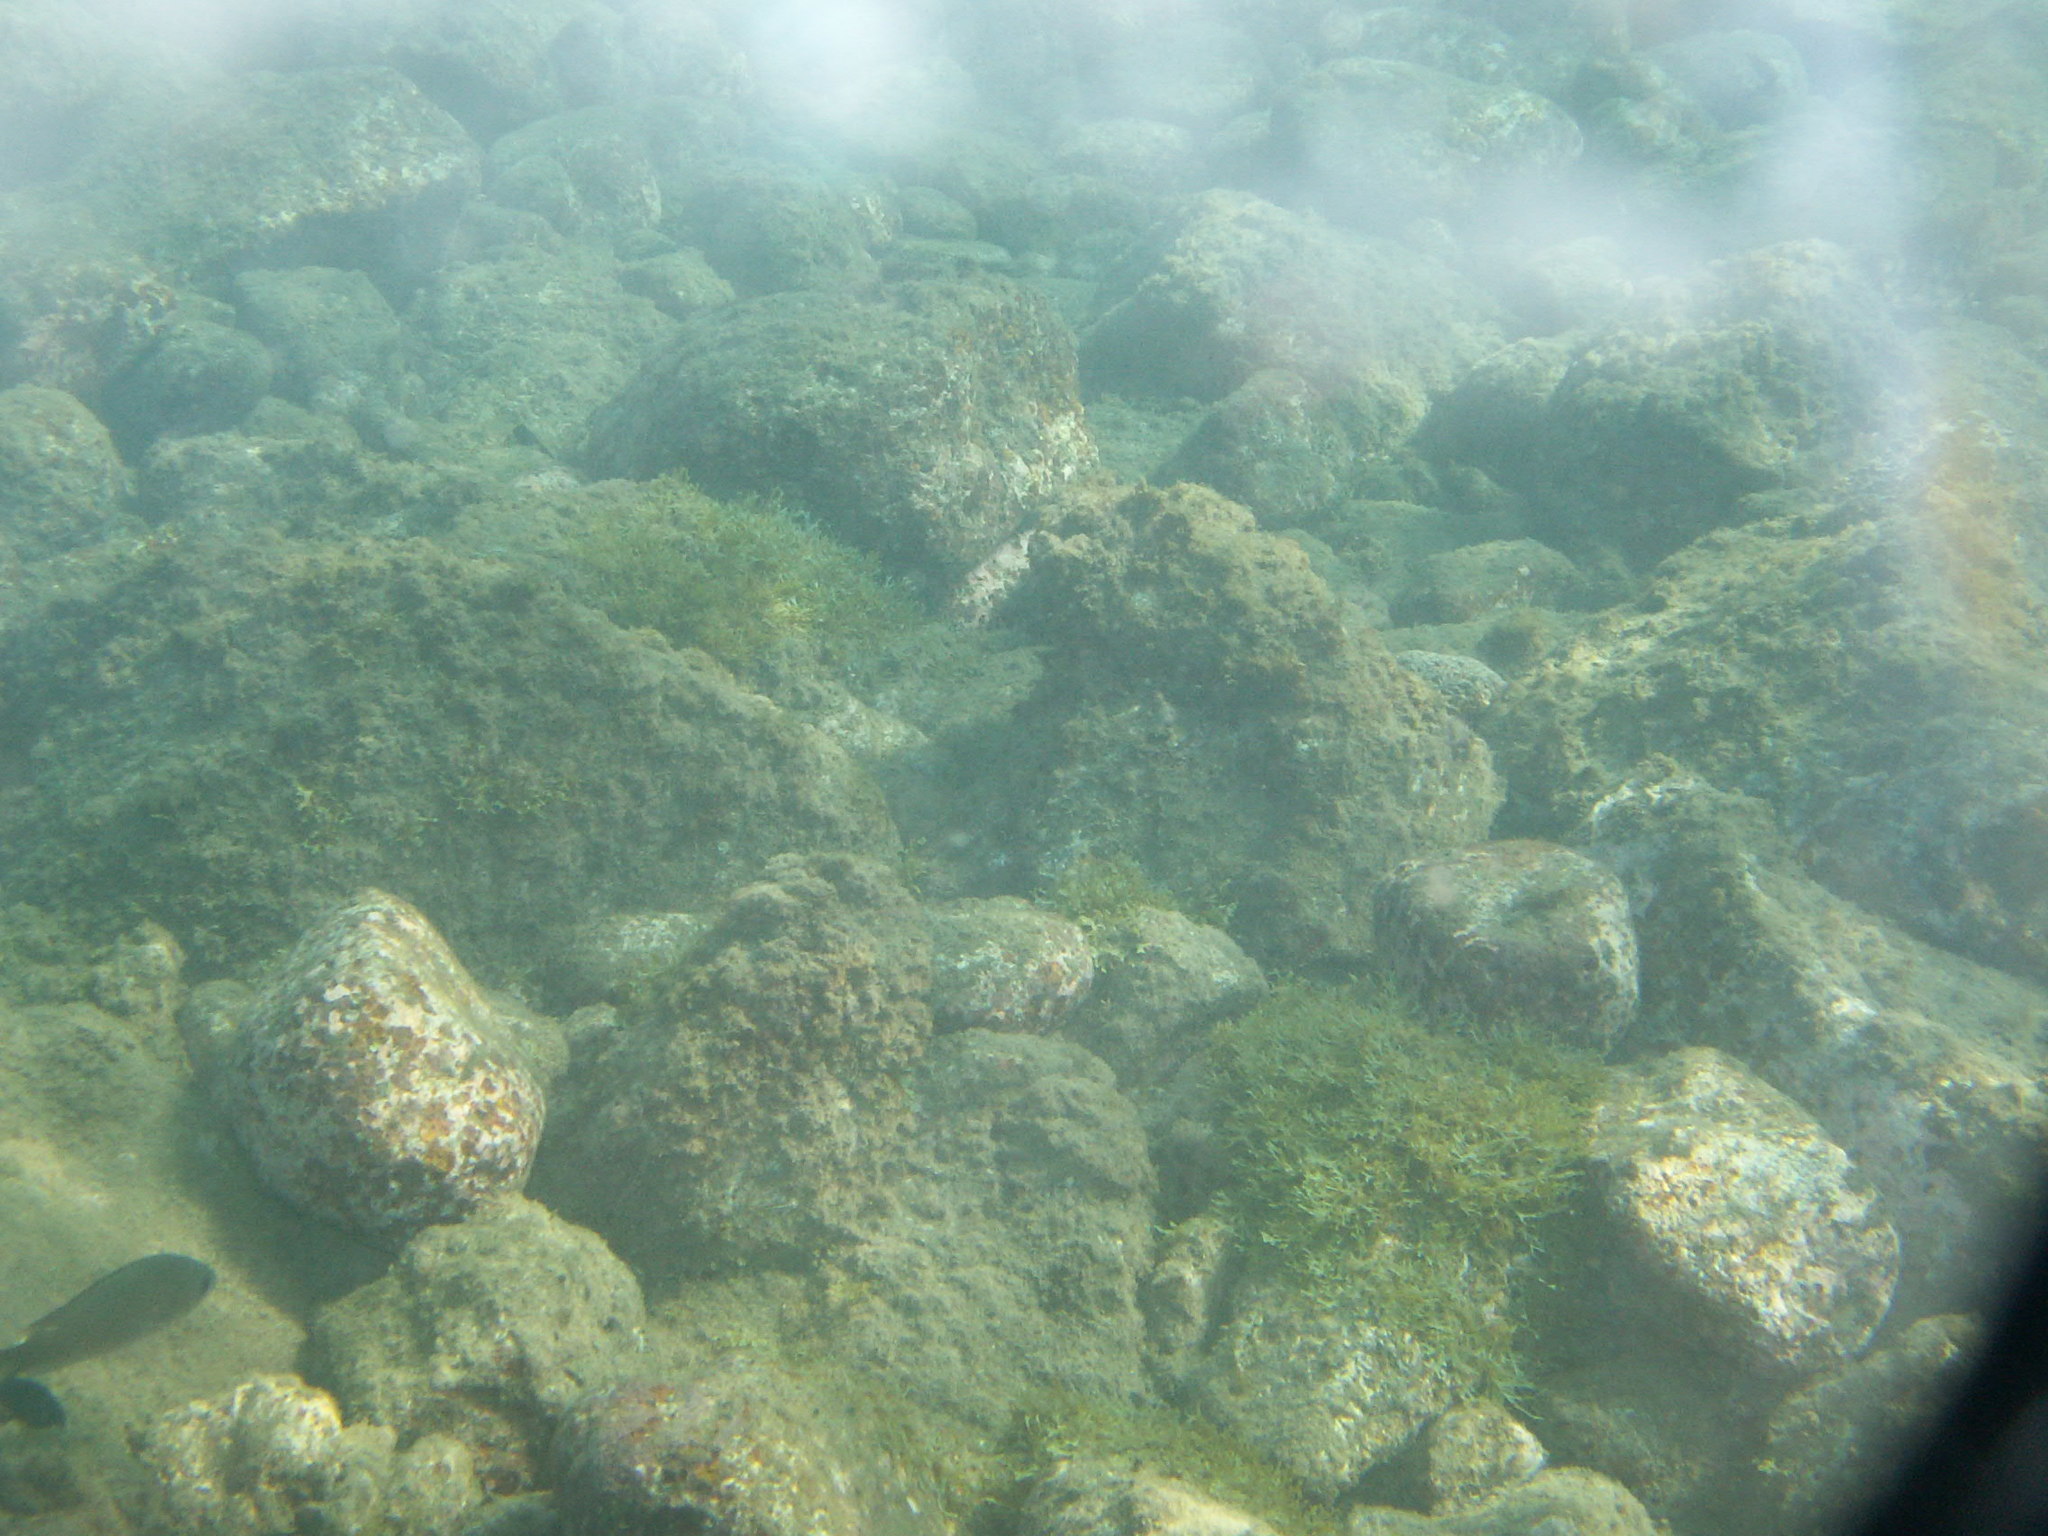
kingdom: Animalia
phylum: Chordata
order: Perciformes
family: Pomacentridae
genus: Stegastes
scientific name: Stegastes imbricatus
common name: Cape verde gregory
